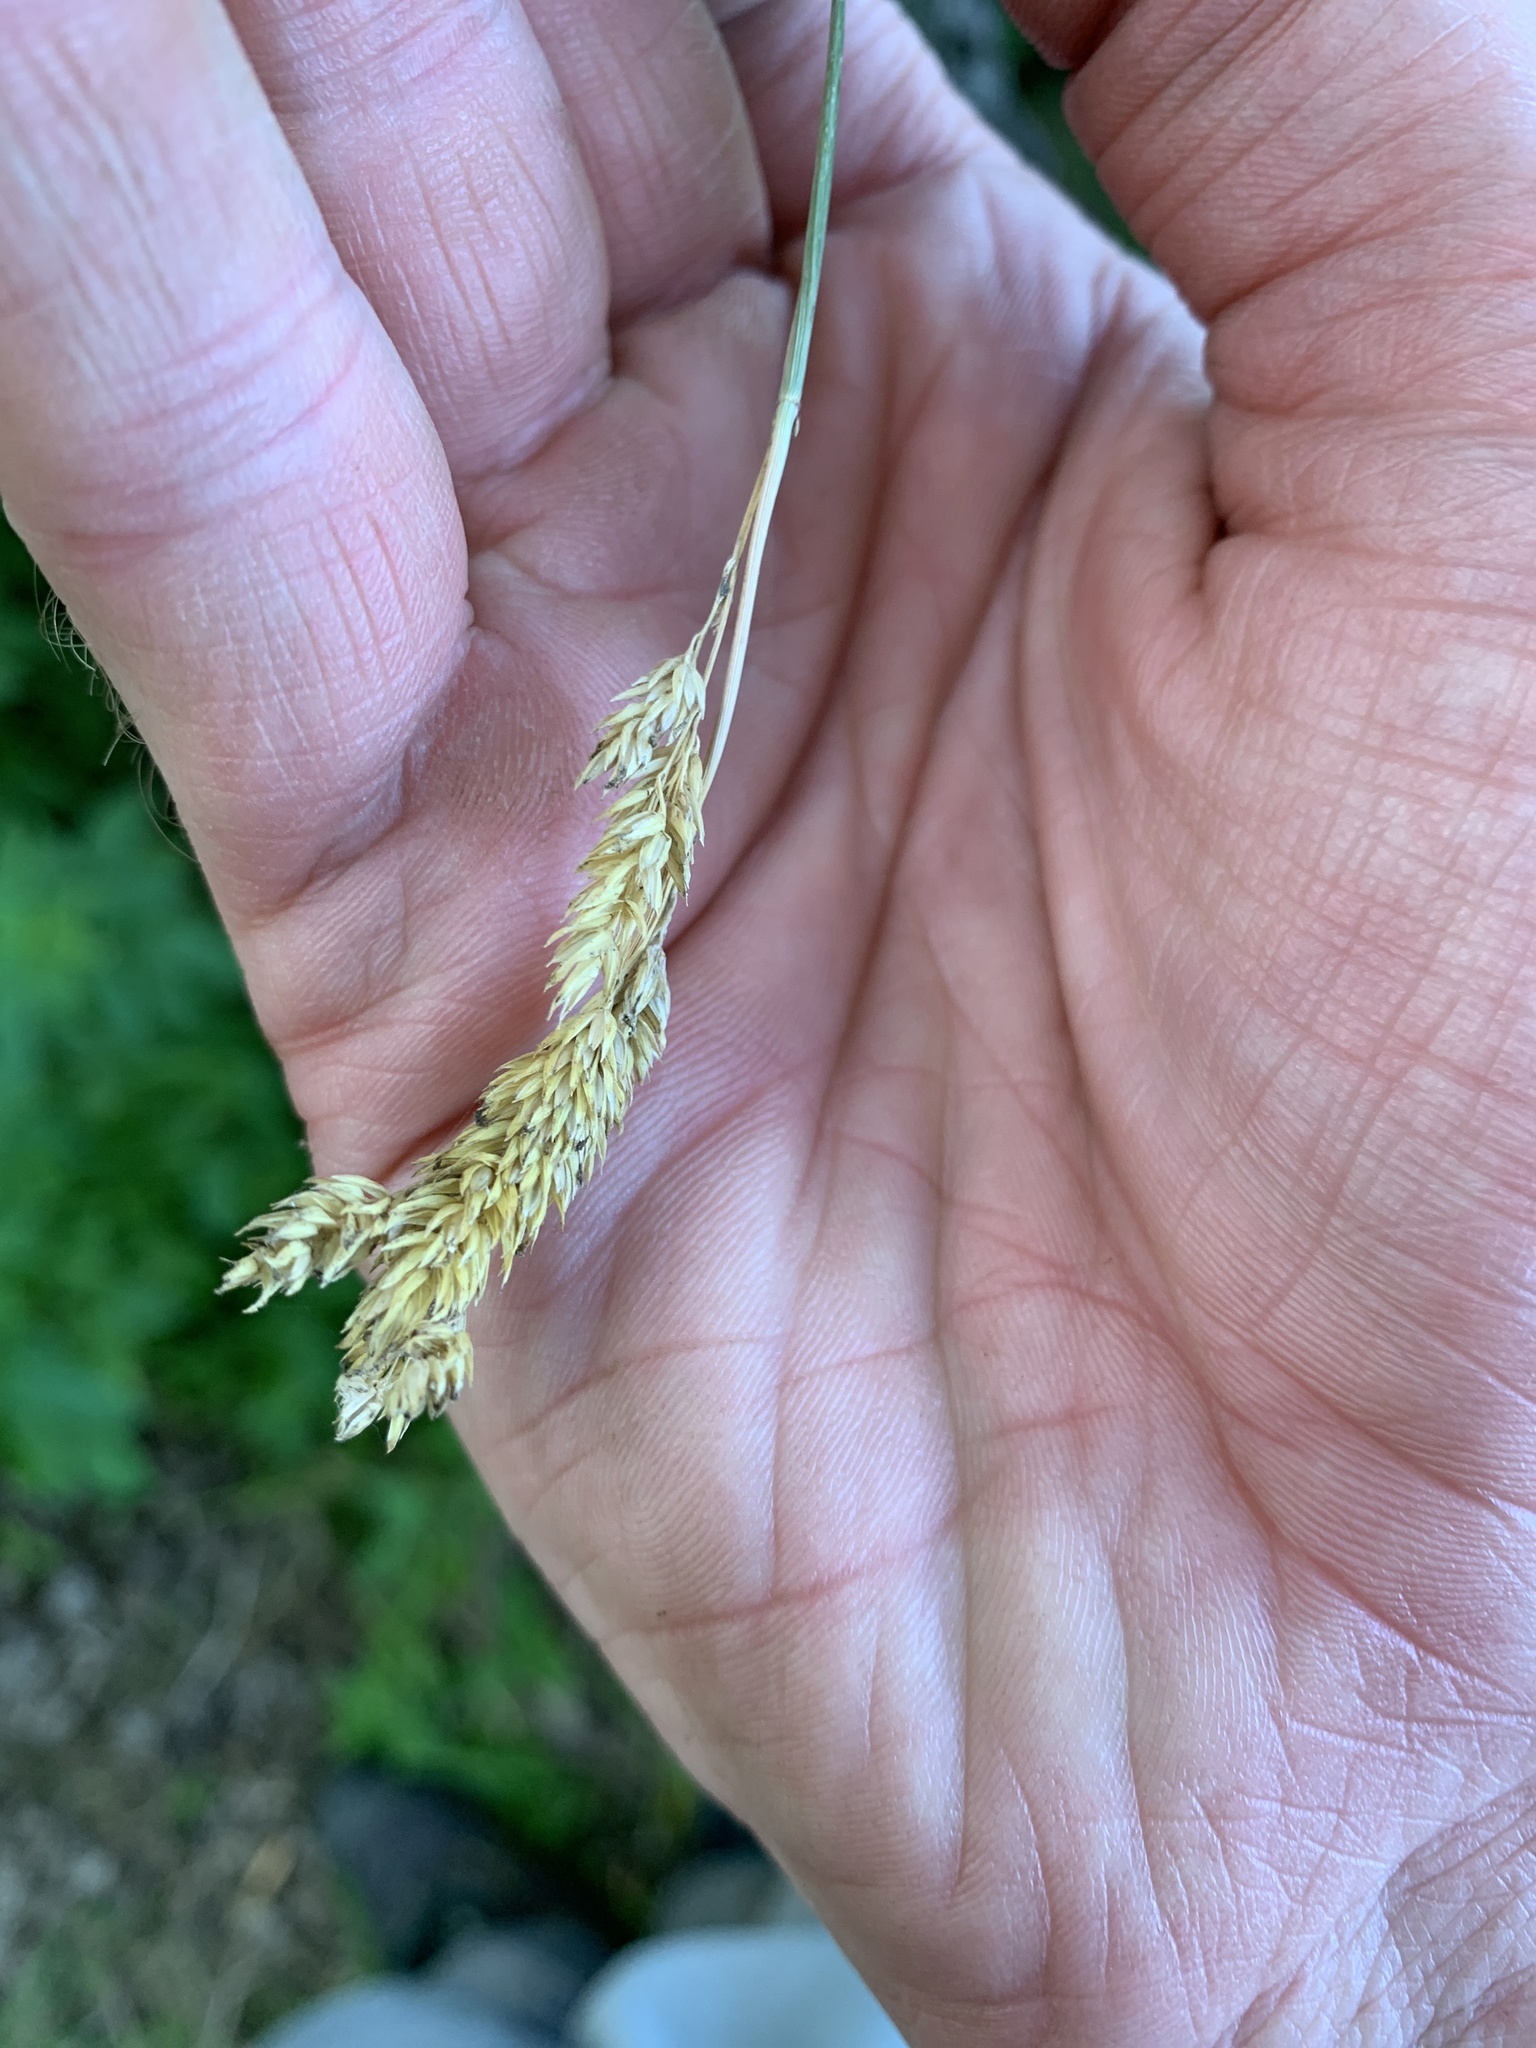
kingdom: Plantae
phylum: Tracheophyta
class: Liliopsida
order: Poales
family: Poaceae
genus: Phalaris
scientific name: Phalaris arundinacea
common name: Reed canary-grass
